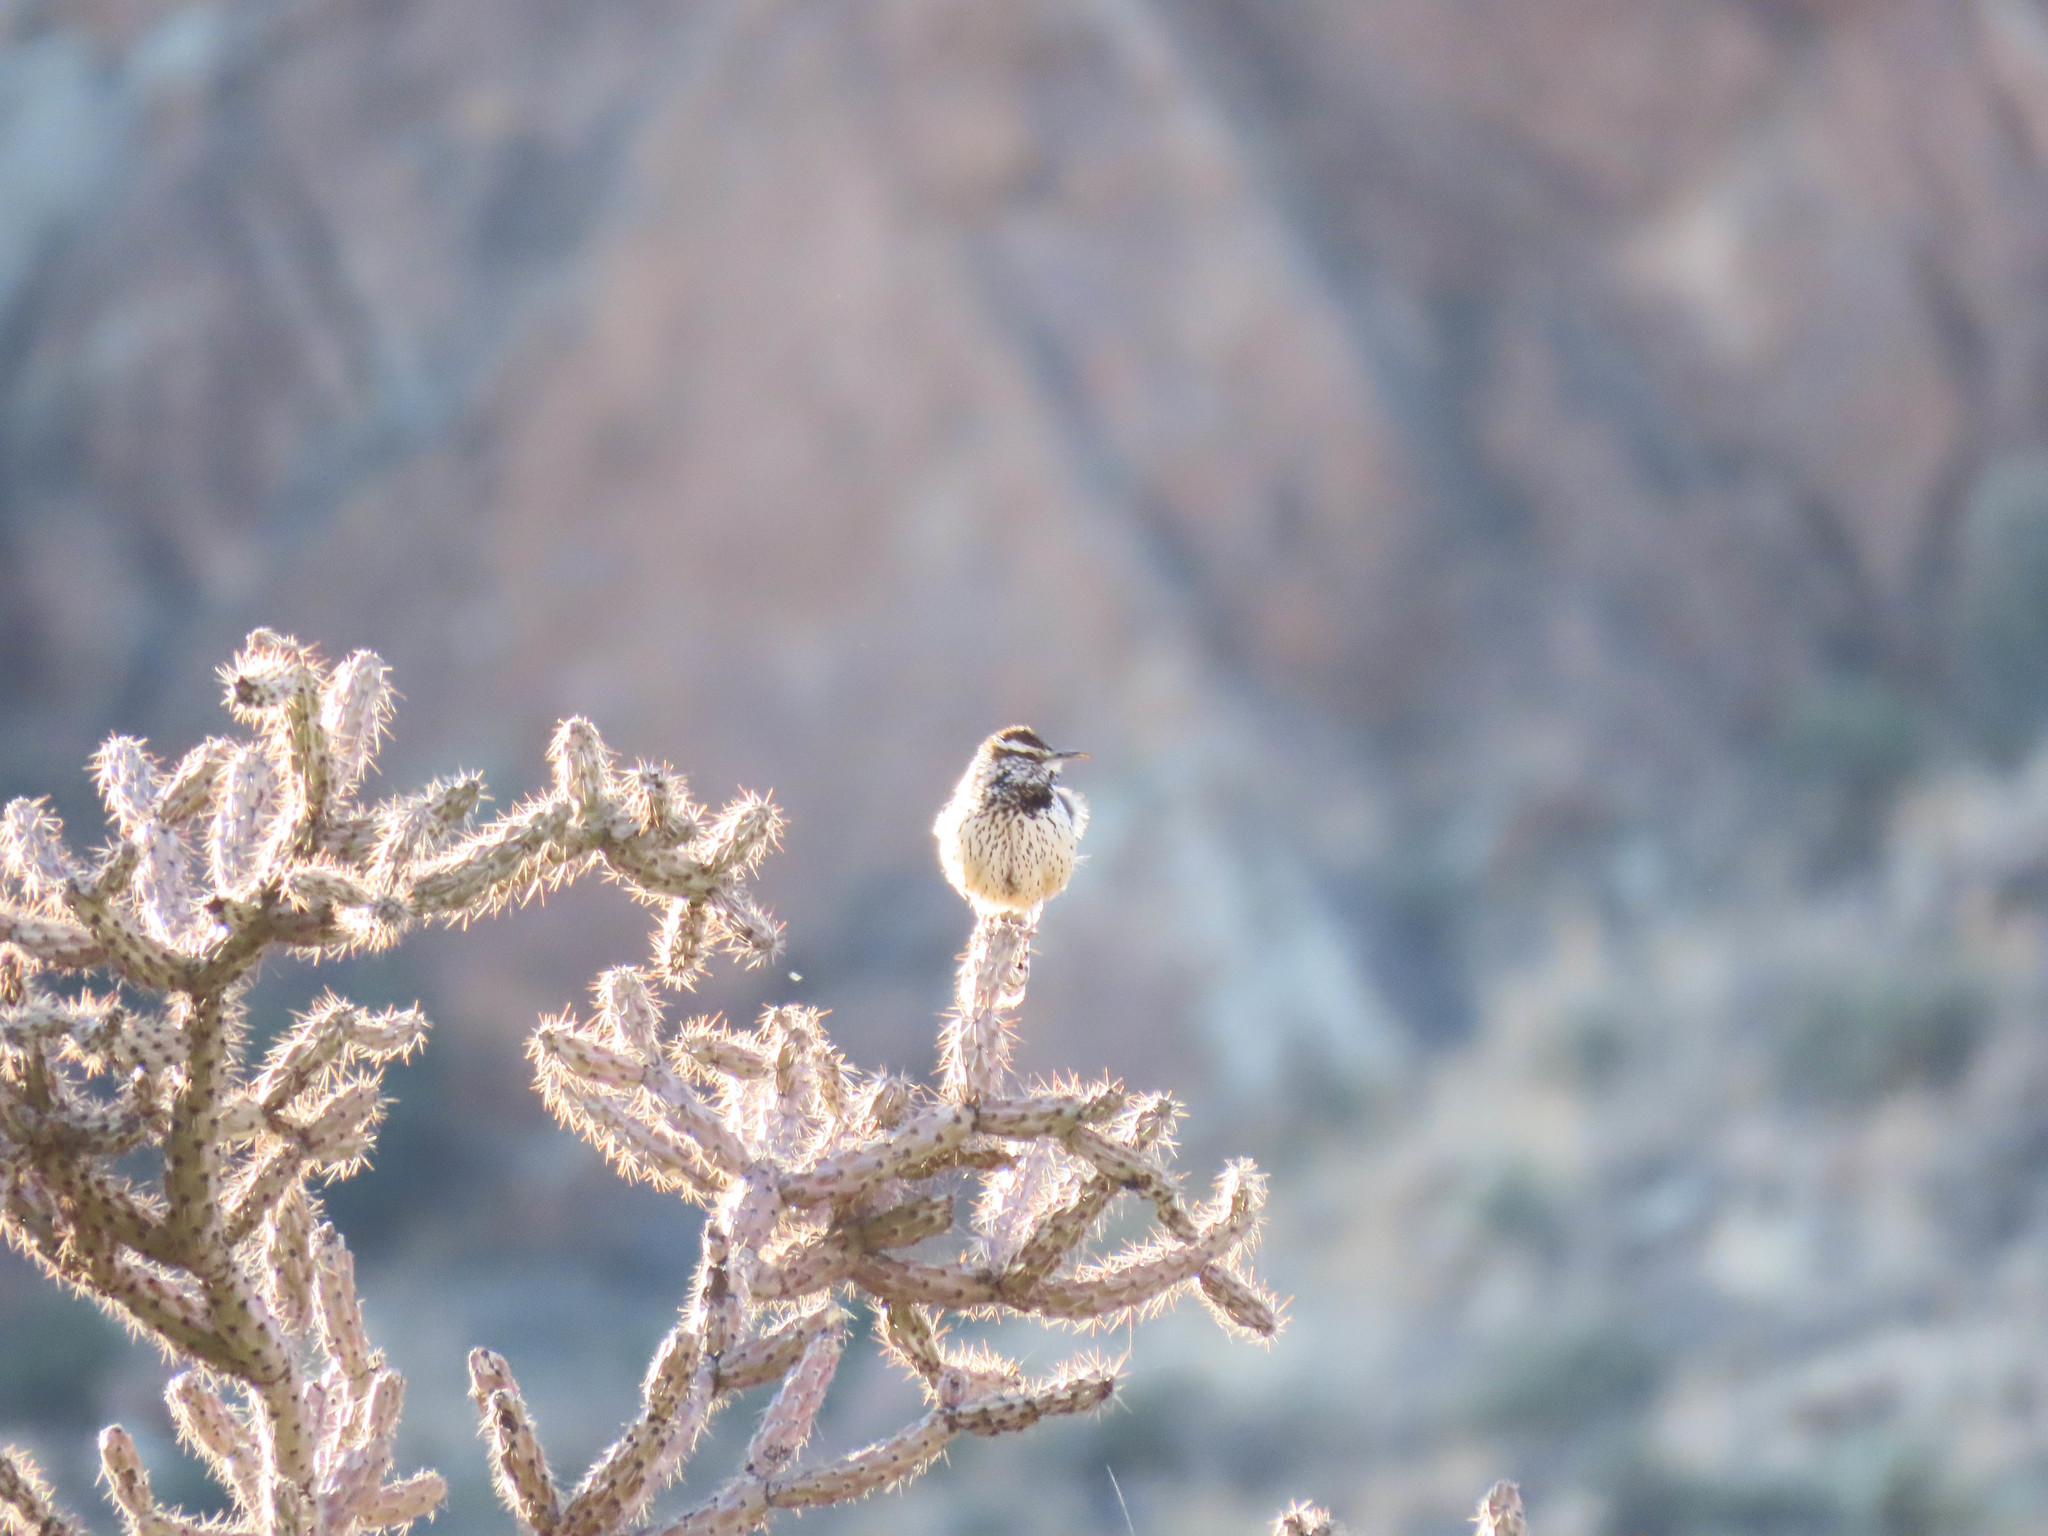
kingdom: Animalia
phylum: Chordata
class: Aves
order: Passeriformes
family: Troglodytidae
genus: Campylorhynchus
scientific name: Campylorhynchus brunneicapillus
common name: Cactus wren
